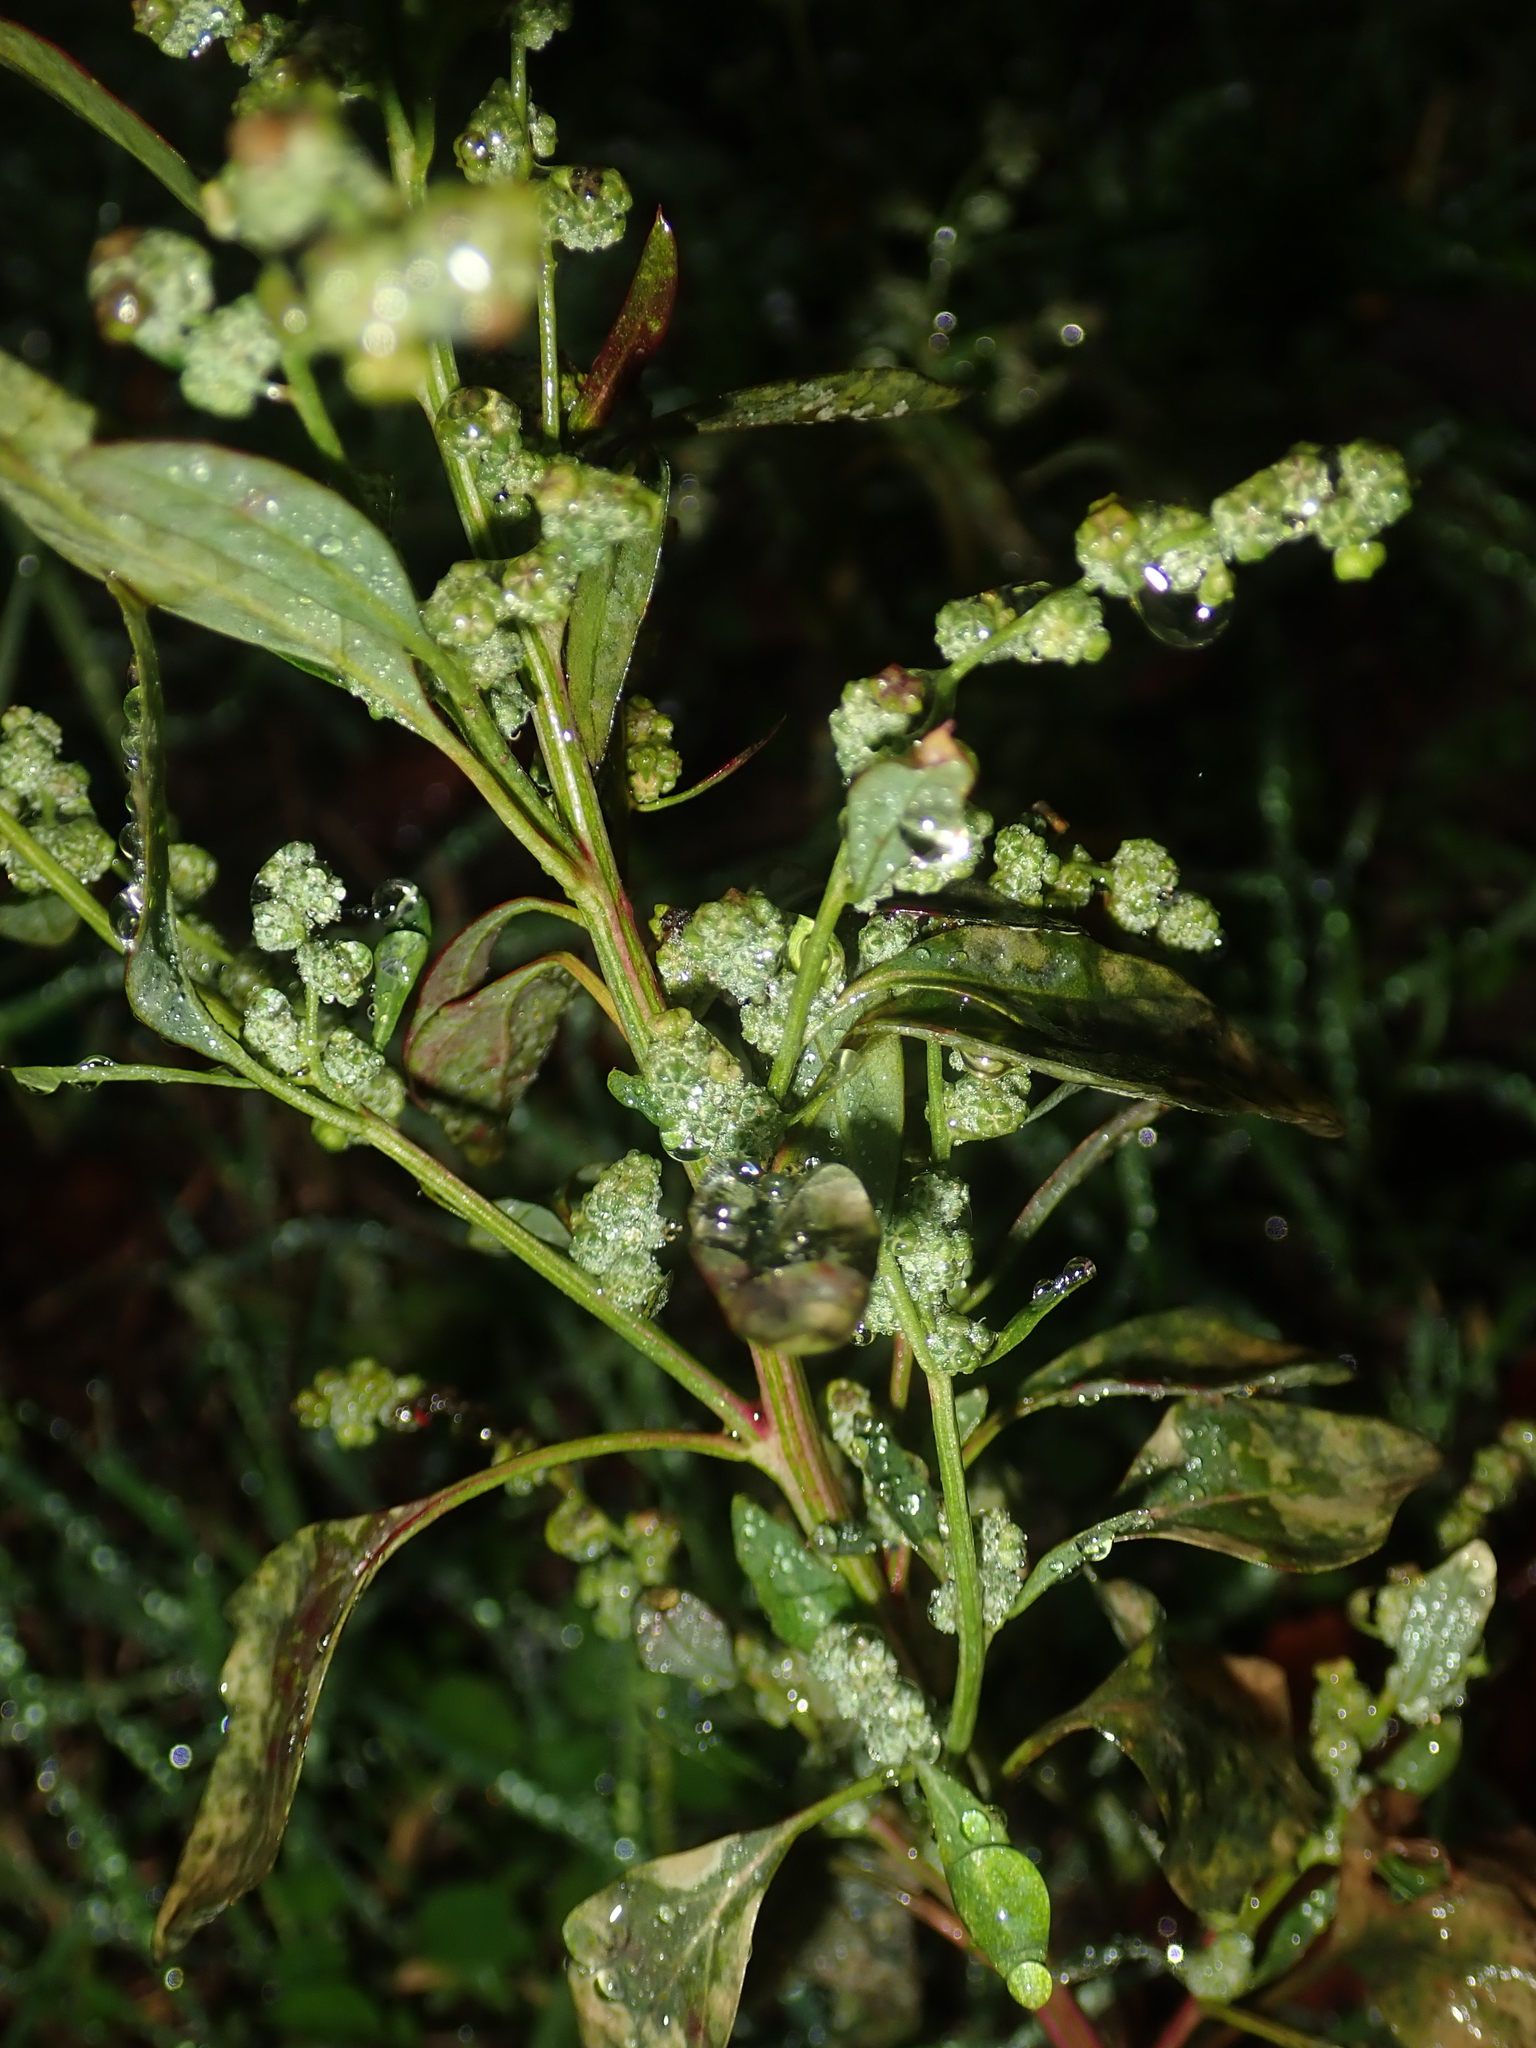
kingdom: Plantae
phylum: Tracheophyta
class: Magnoliopsida
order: Caryophyllales
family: Amaranthaceae
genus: Chenopodium
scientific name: Chenopodium album
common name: Fat-hen
